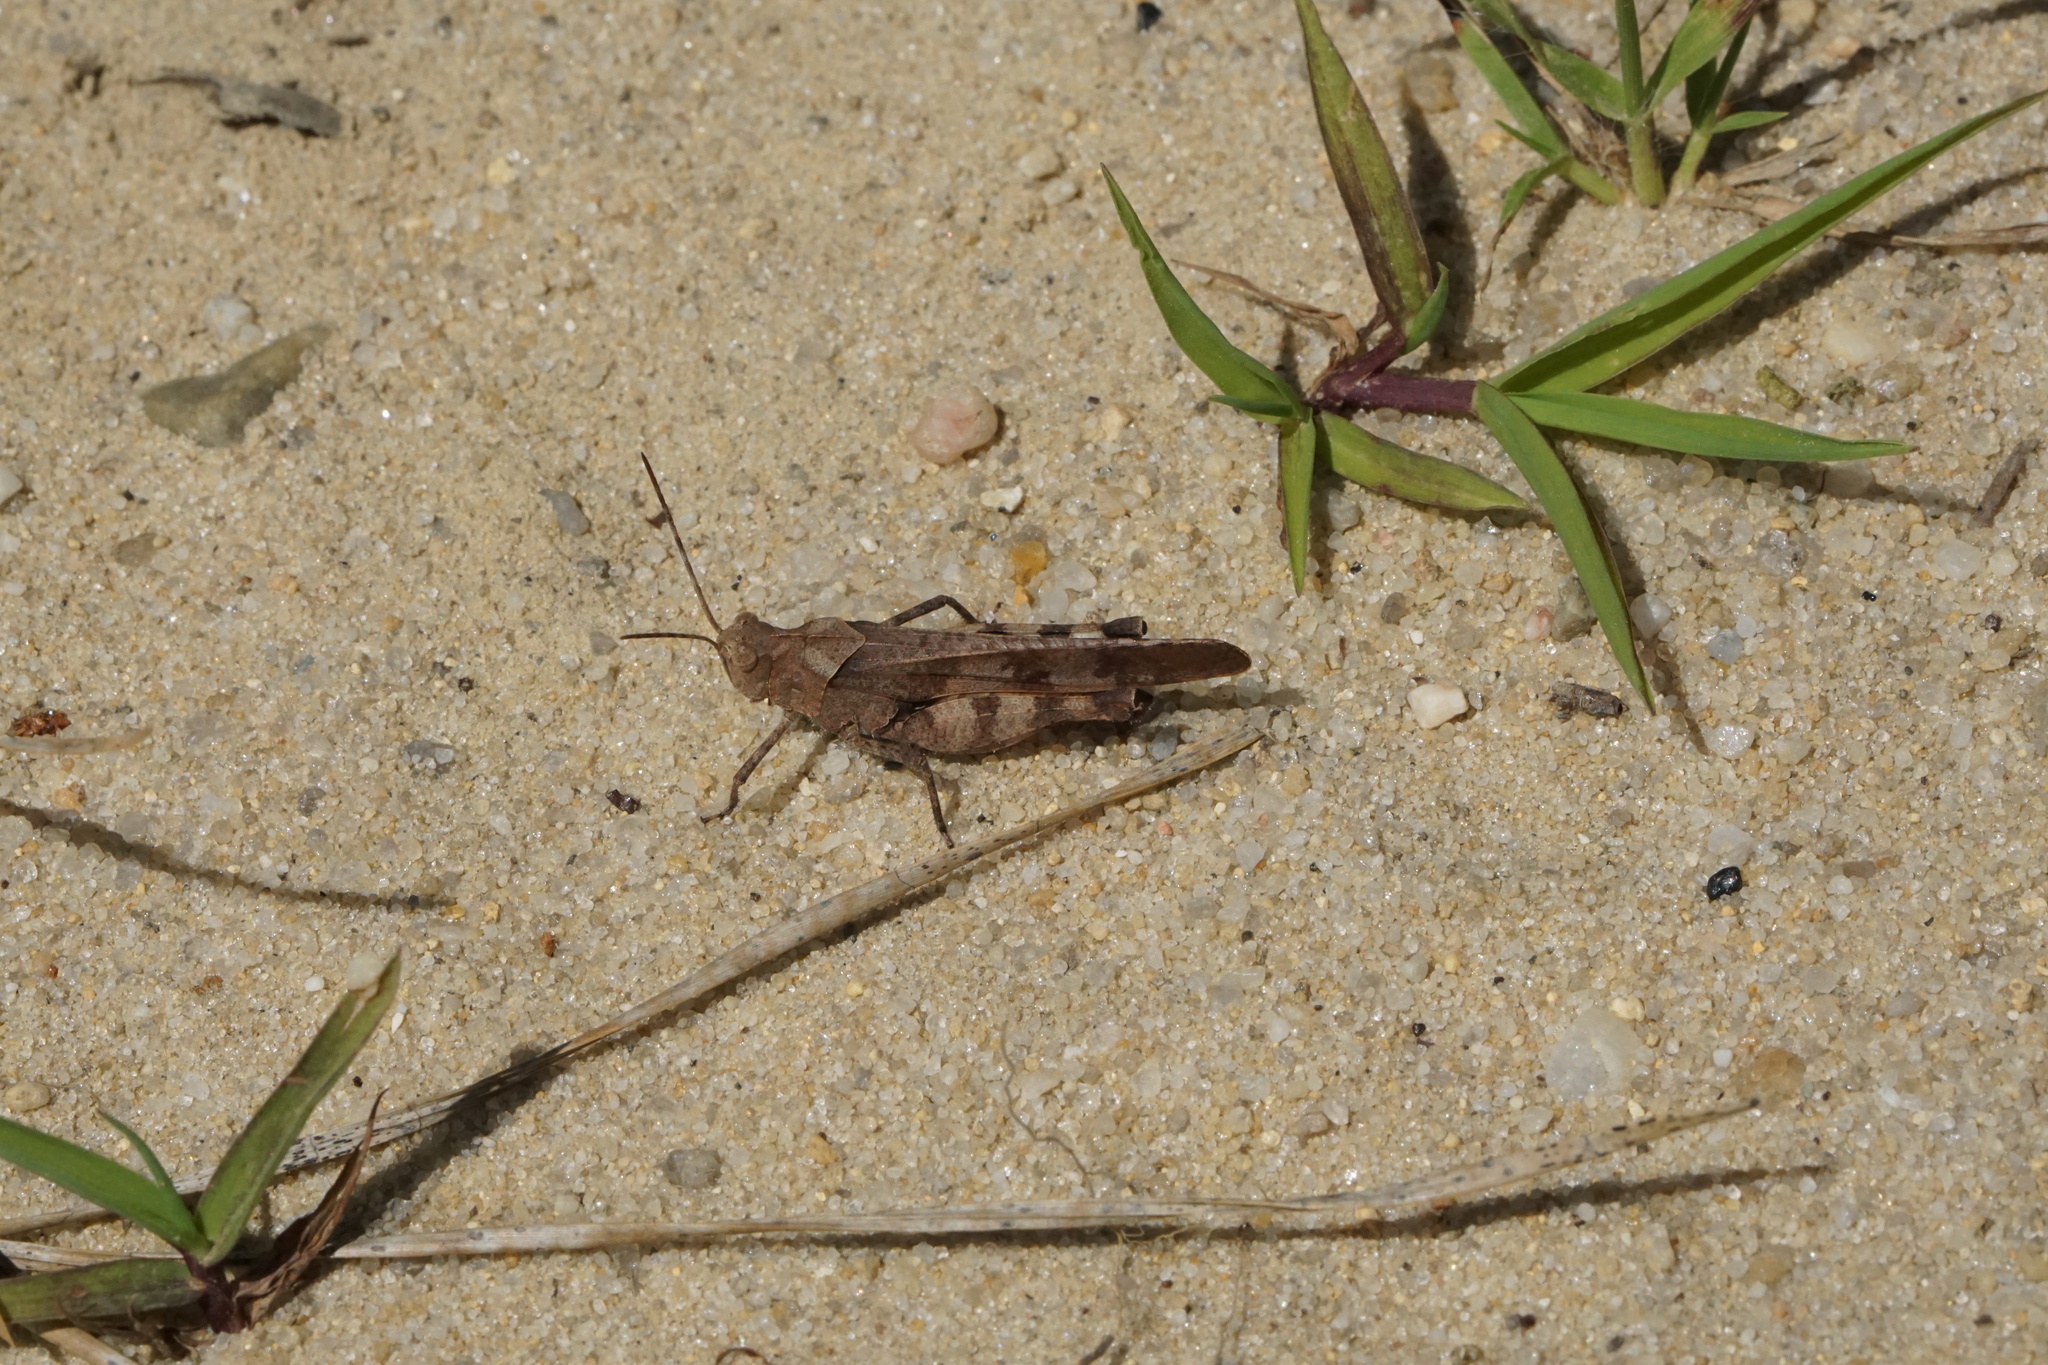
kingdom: Animalia
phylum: Arthropoda
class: Insecta
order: Orthoptera
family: Acrididae
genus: Spharagemon
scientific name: Spharagemon bolli
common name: Boll's grasshopper
